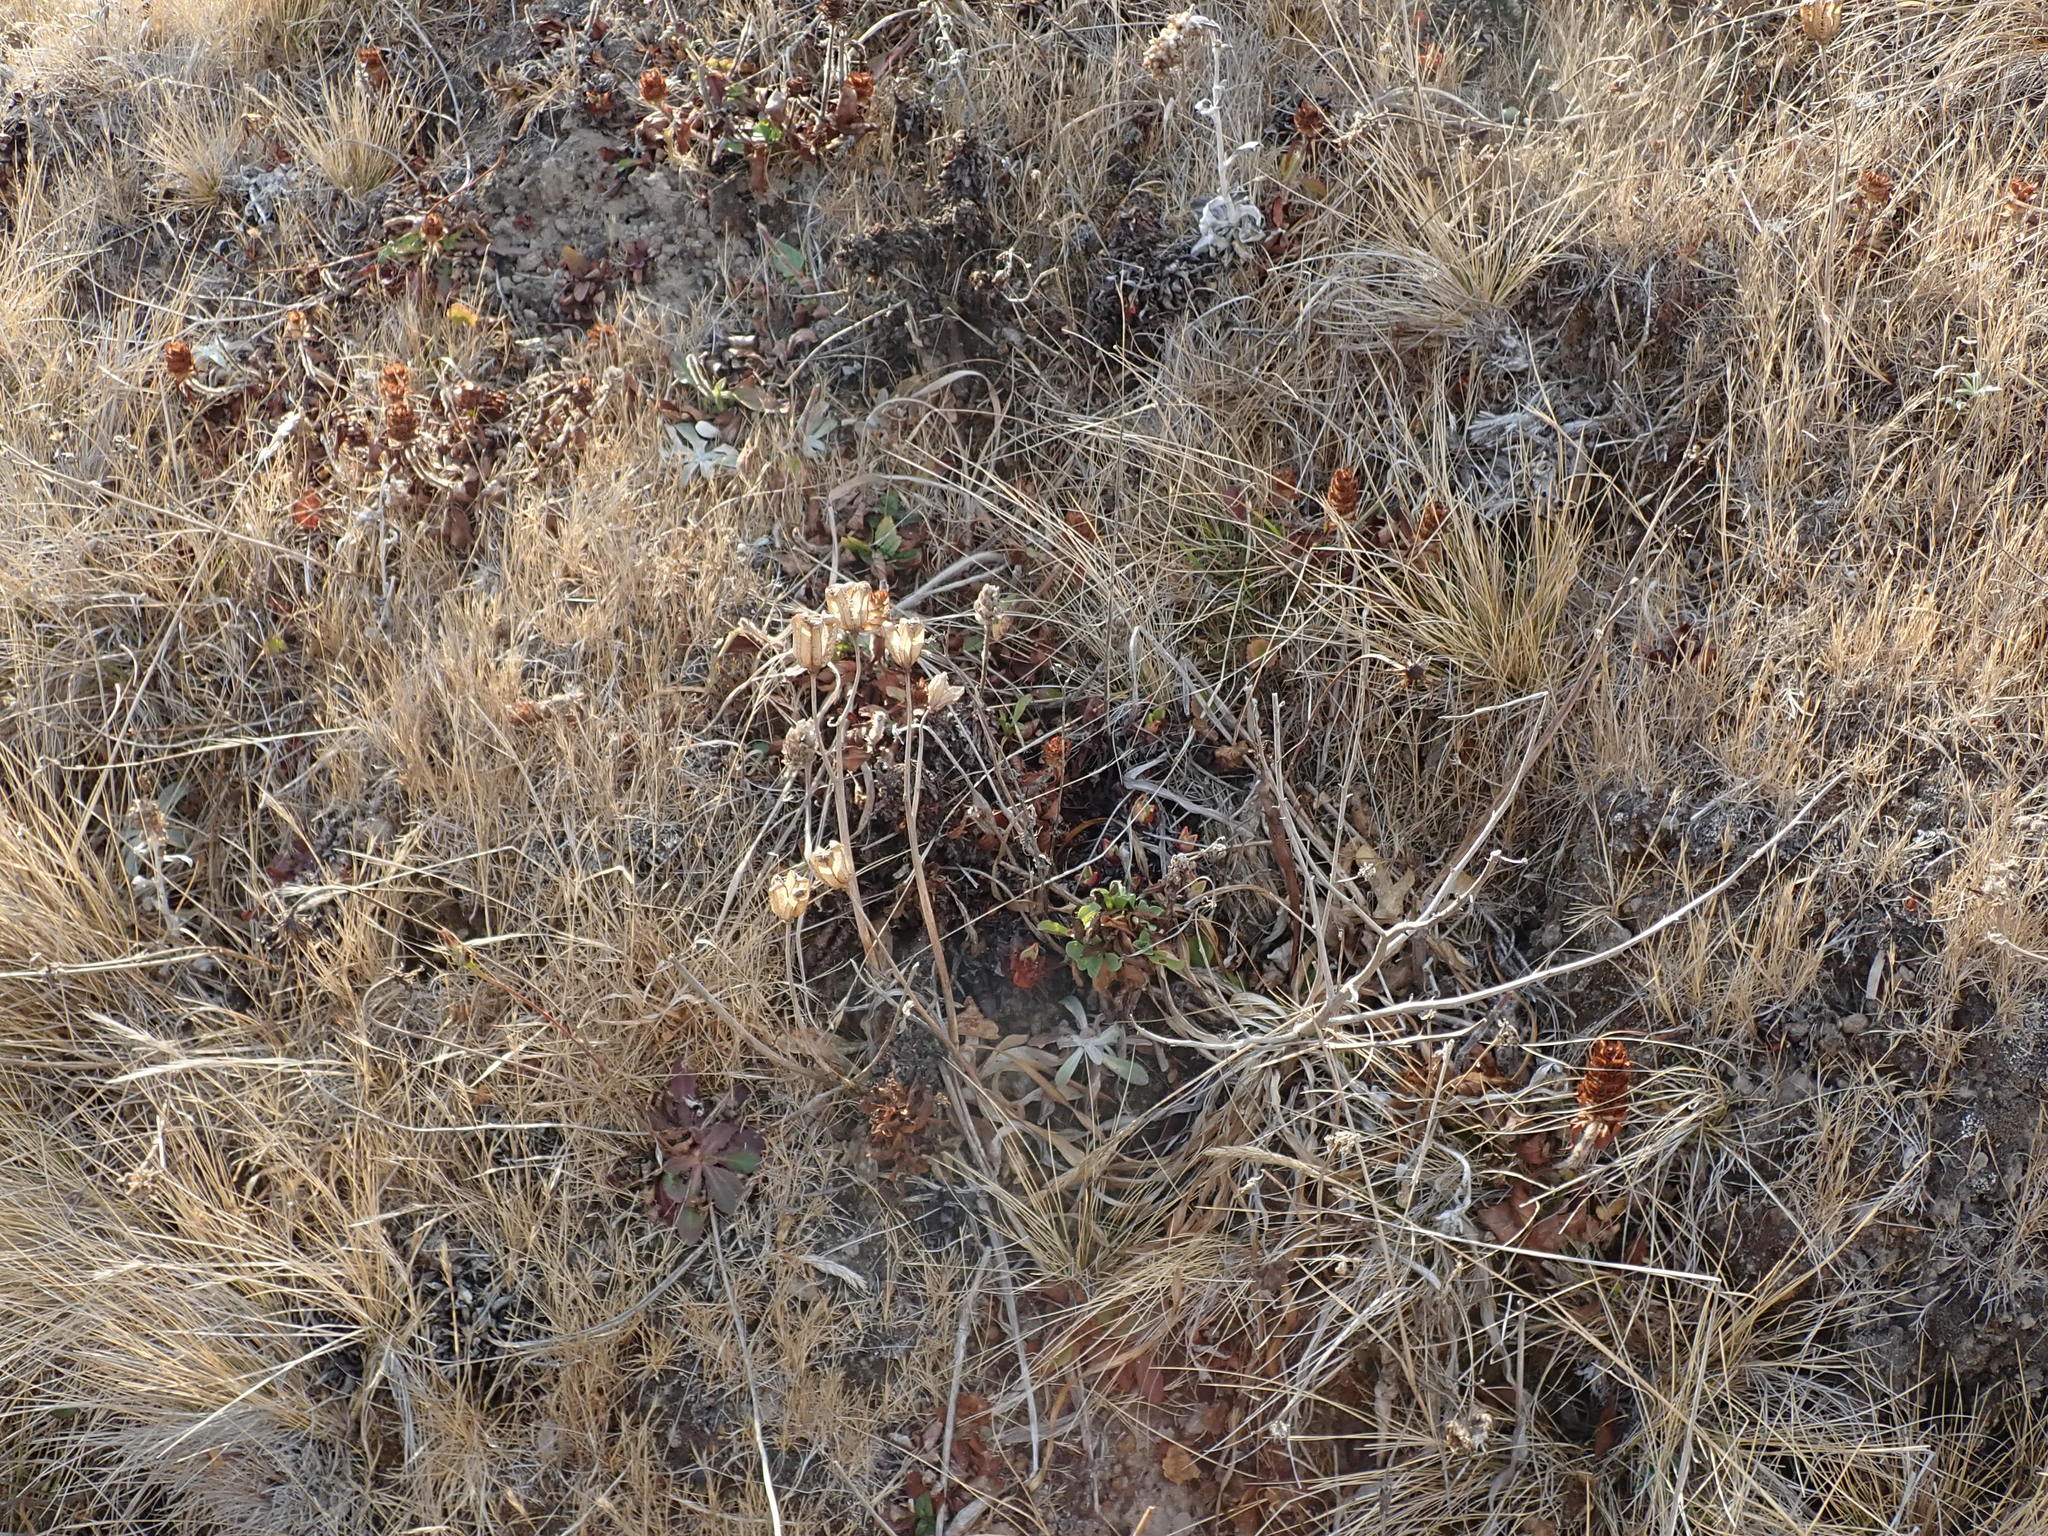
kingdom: Plantae
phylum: Tracheophyta
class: Liliopsida
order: Liliales
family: Liliaceae
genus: Fritillaria
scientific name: Fritillaria liliacea
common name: Fragrant fritillary
